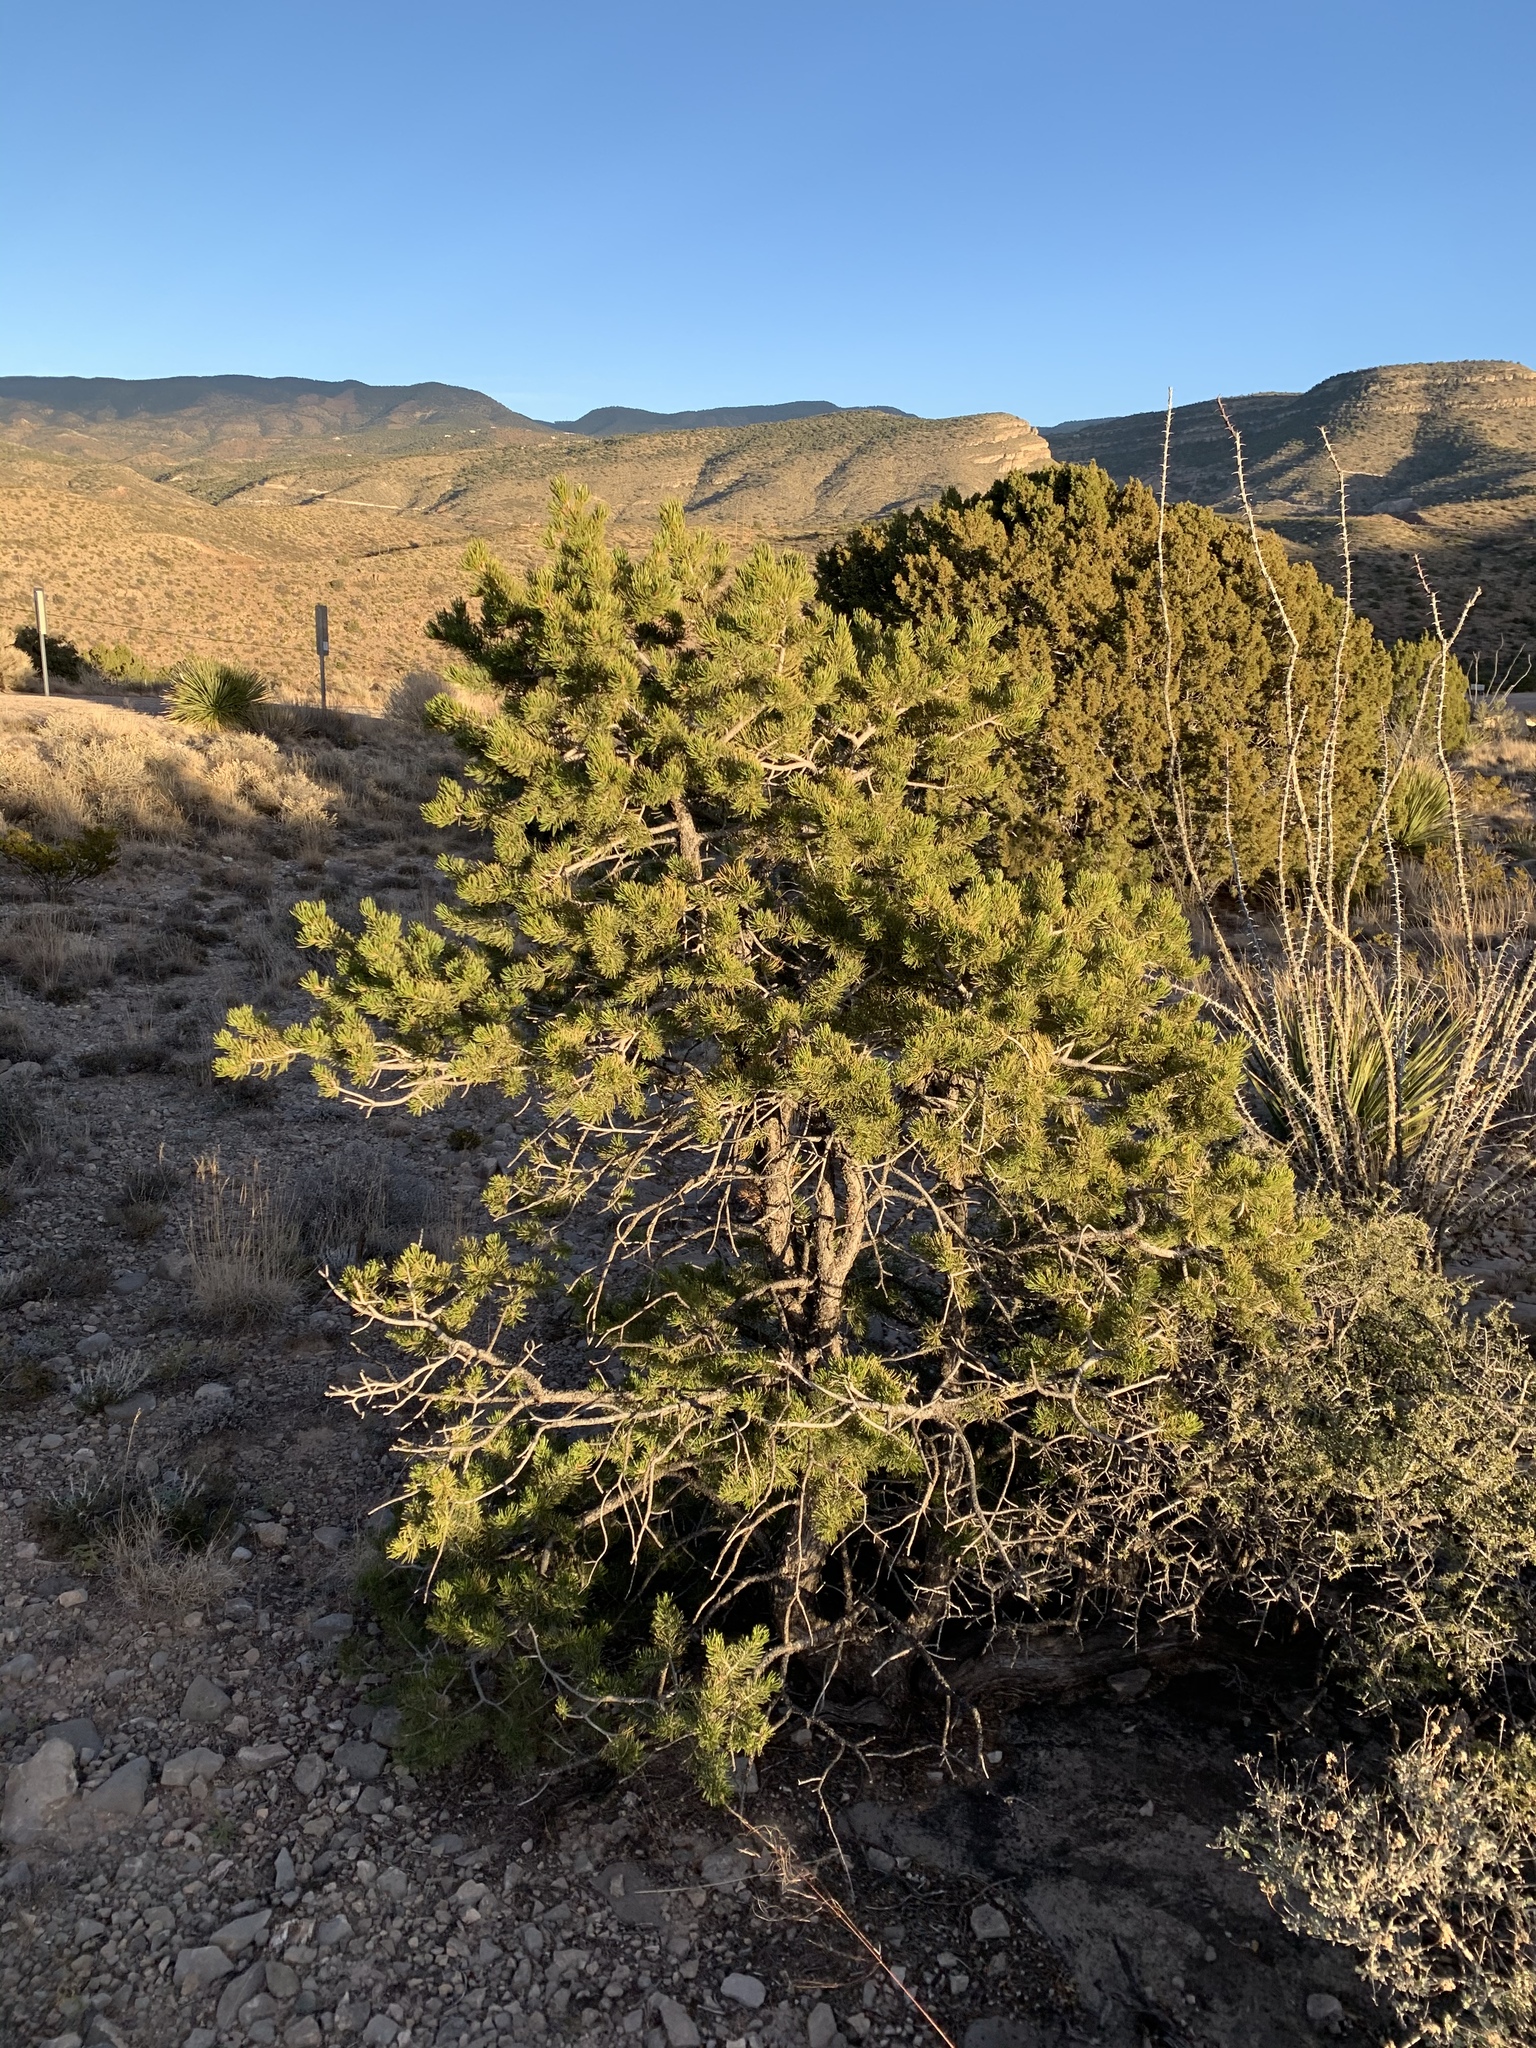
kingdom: Plantae
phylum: Tracheophyta
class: Pinopsida
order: Pinales
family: Pinaceae
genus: Pinus
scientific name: Pinus edulis
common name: Colorado pinyon
